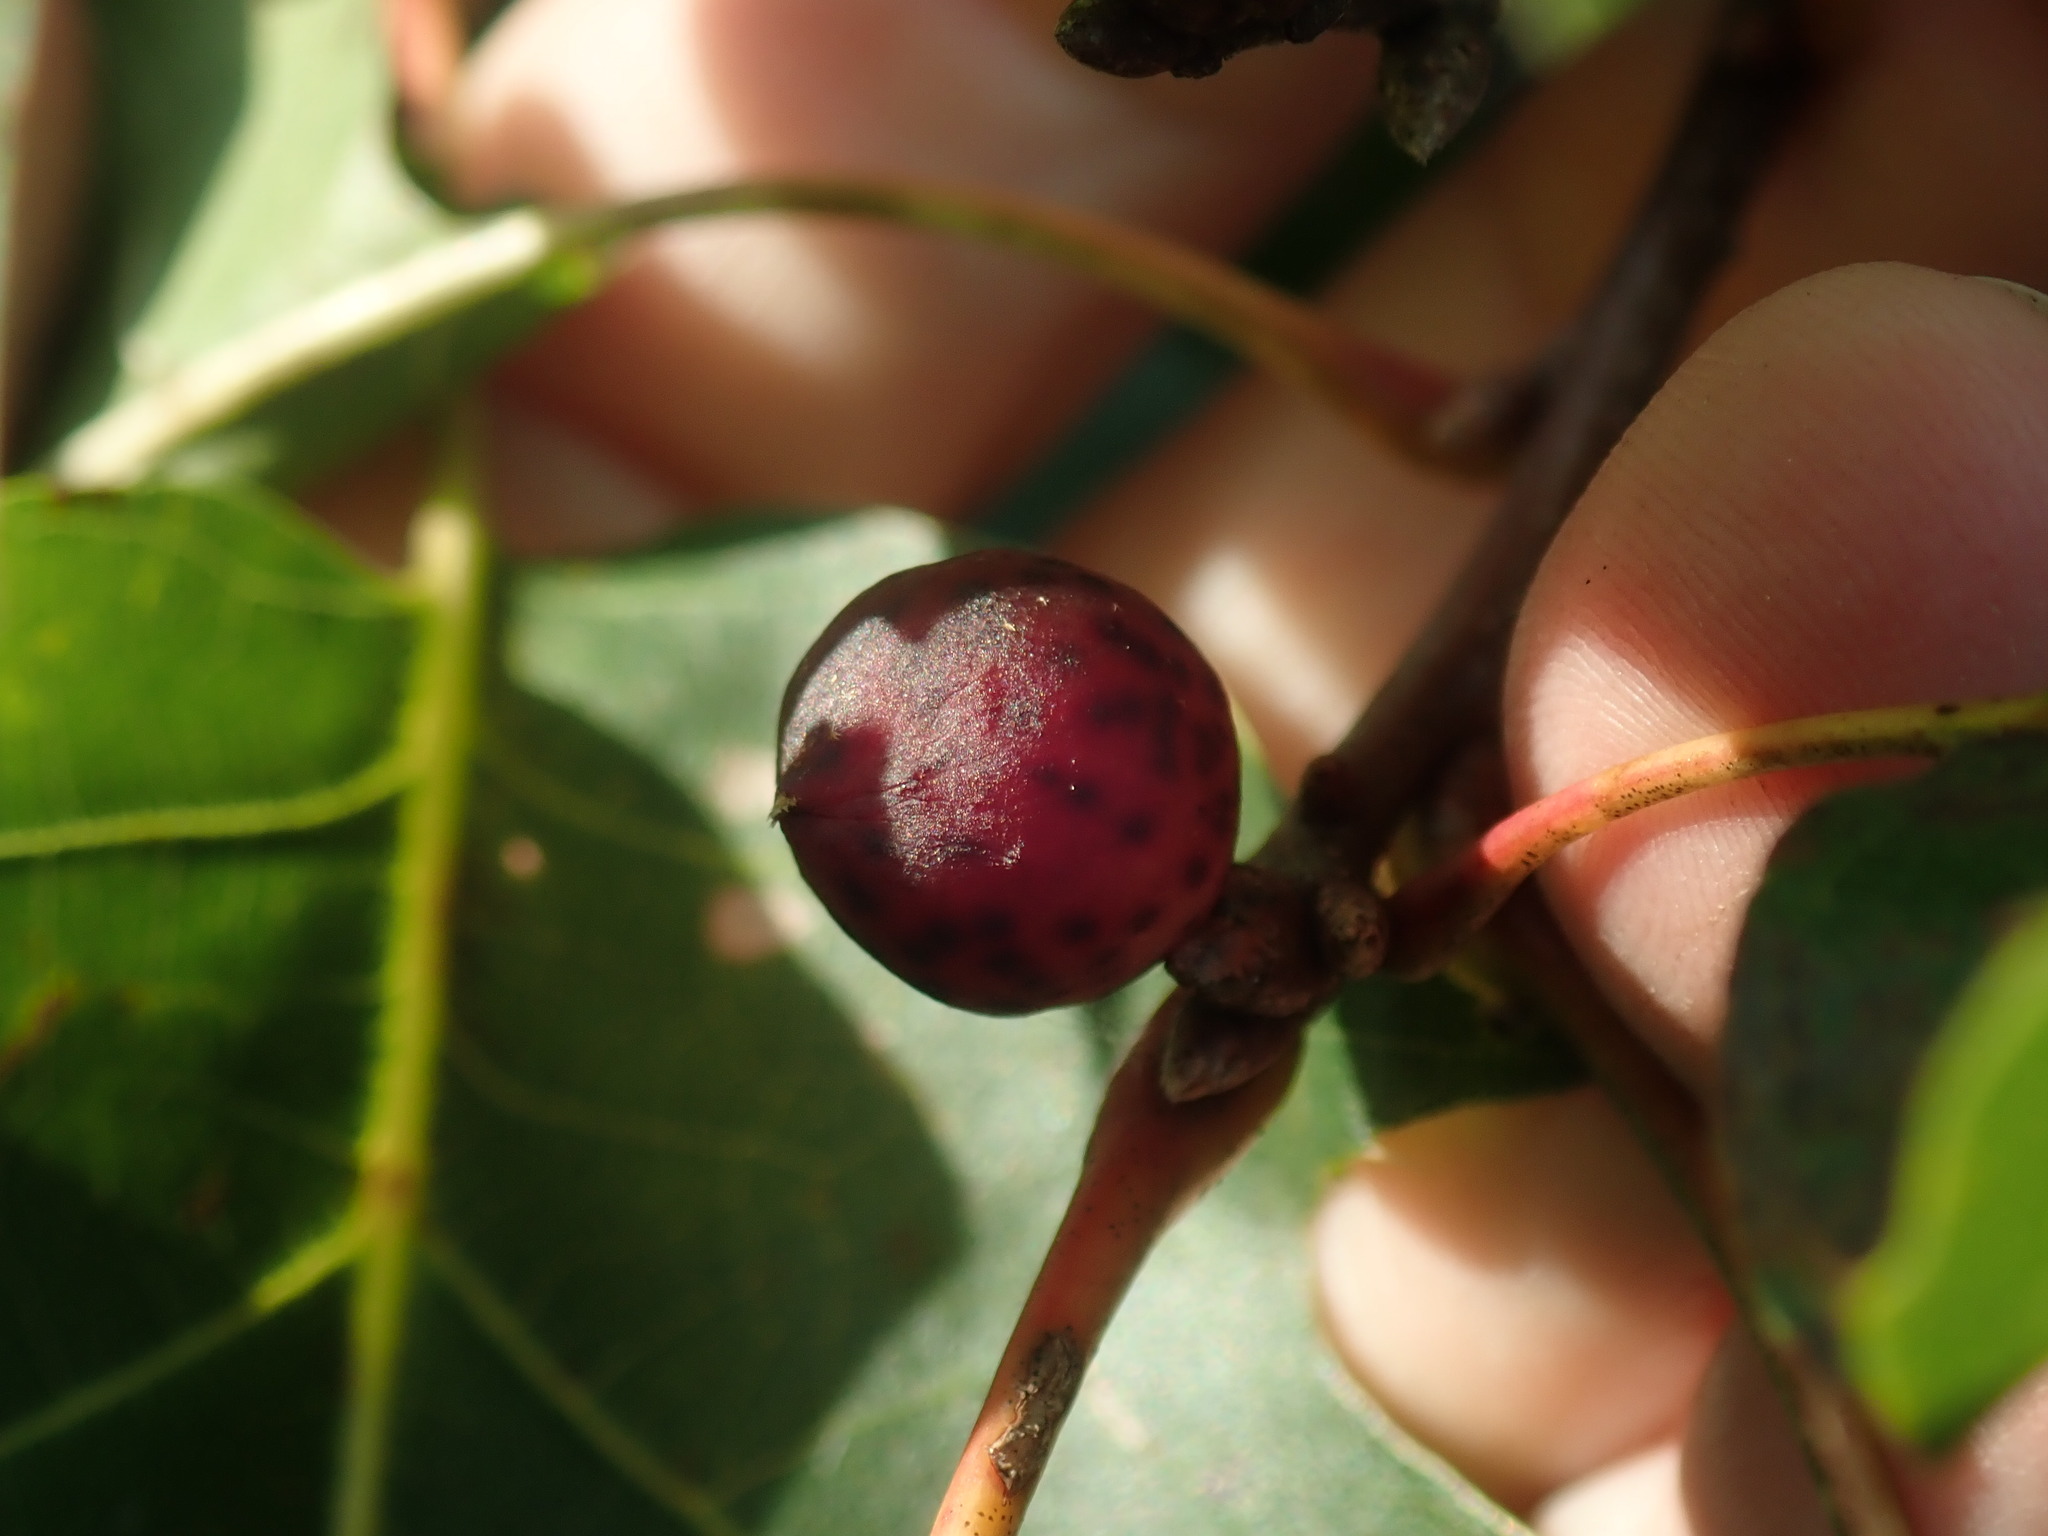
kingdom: Animalia
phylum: Arthropoda
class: Insecta
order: Hymenoptera
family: Cynipidae
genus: Amphibolips
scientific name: Amphibolips
